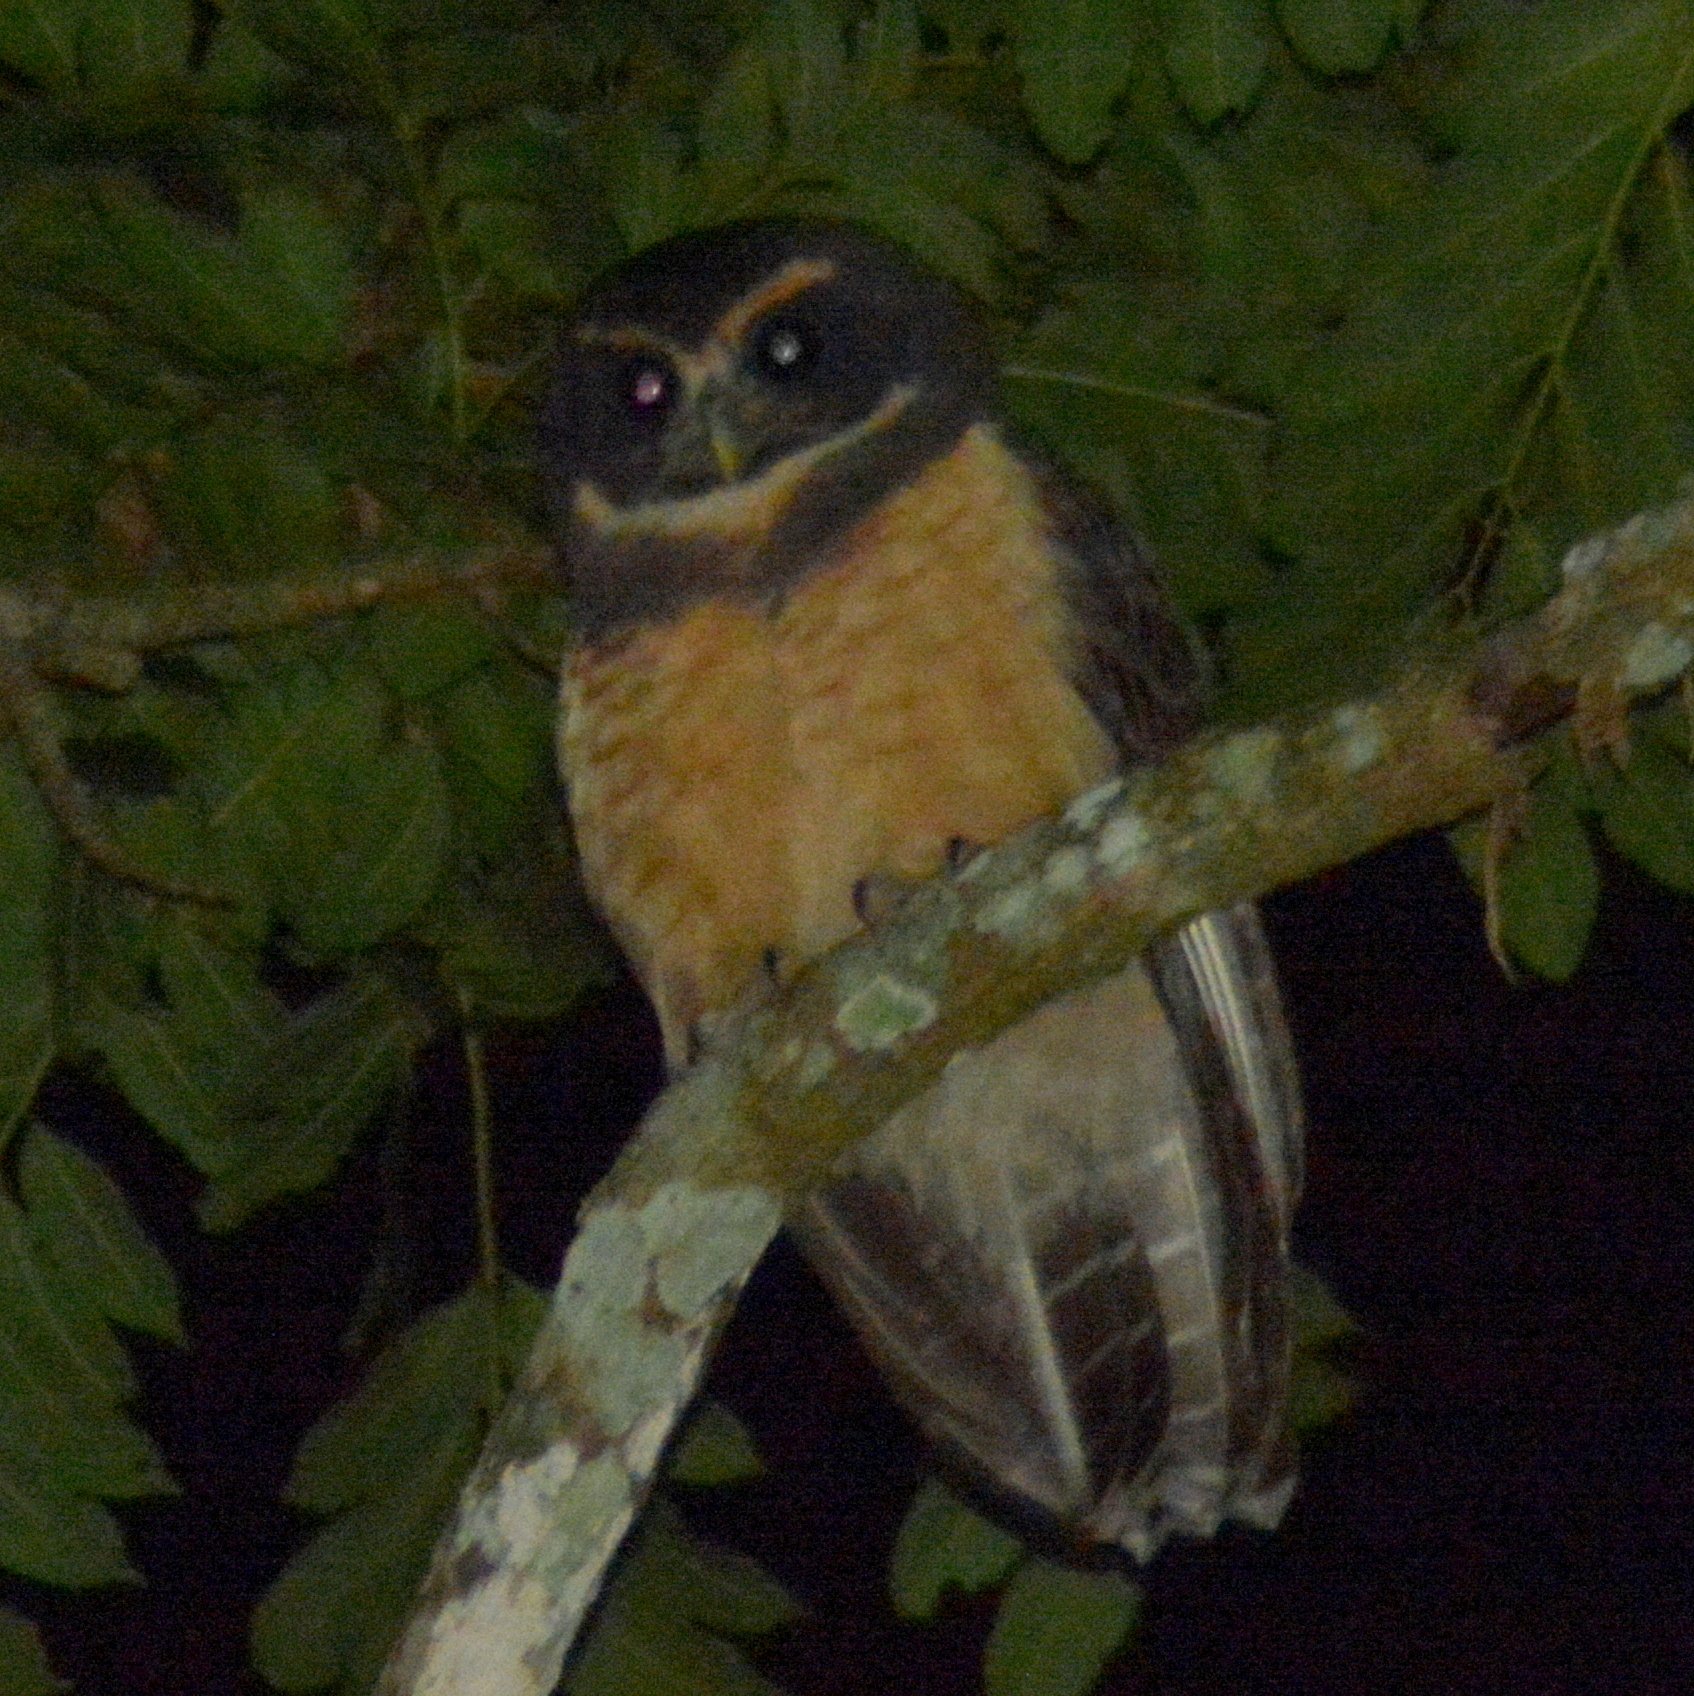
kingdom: Animalia
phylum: Chordata
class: Aves
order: Strigiformes
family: Strigidae
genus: Pulsatrix
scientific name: Pulsatrix koeniswaldiana
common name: Tawny-browed owl
